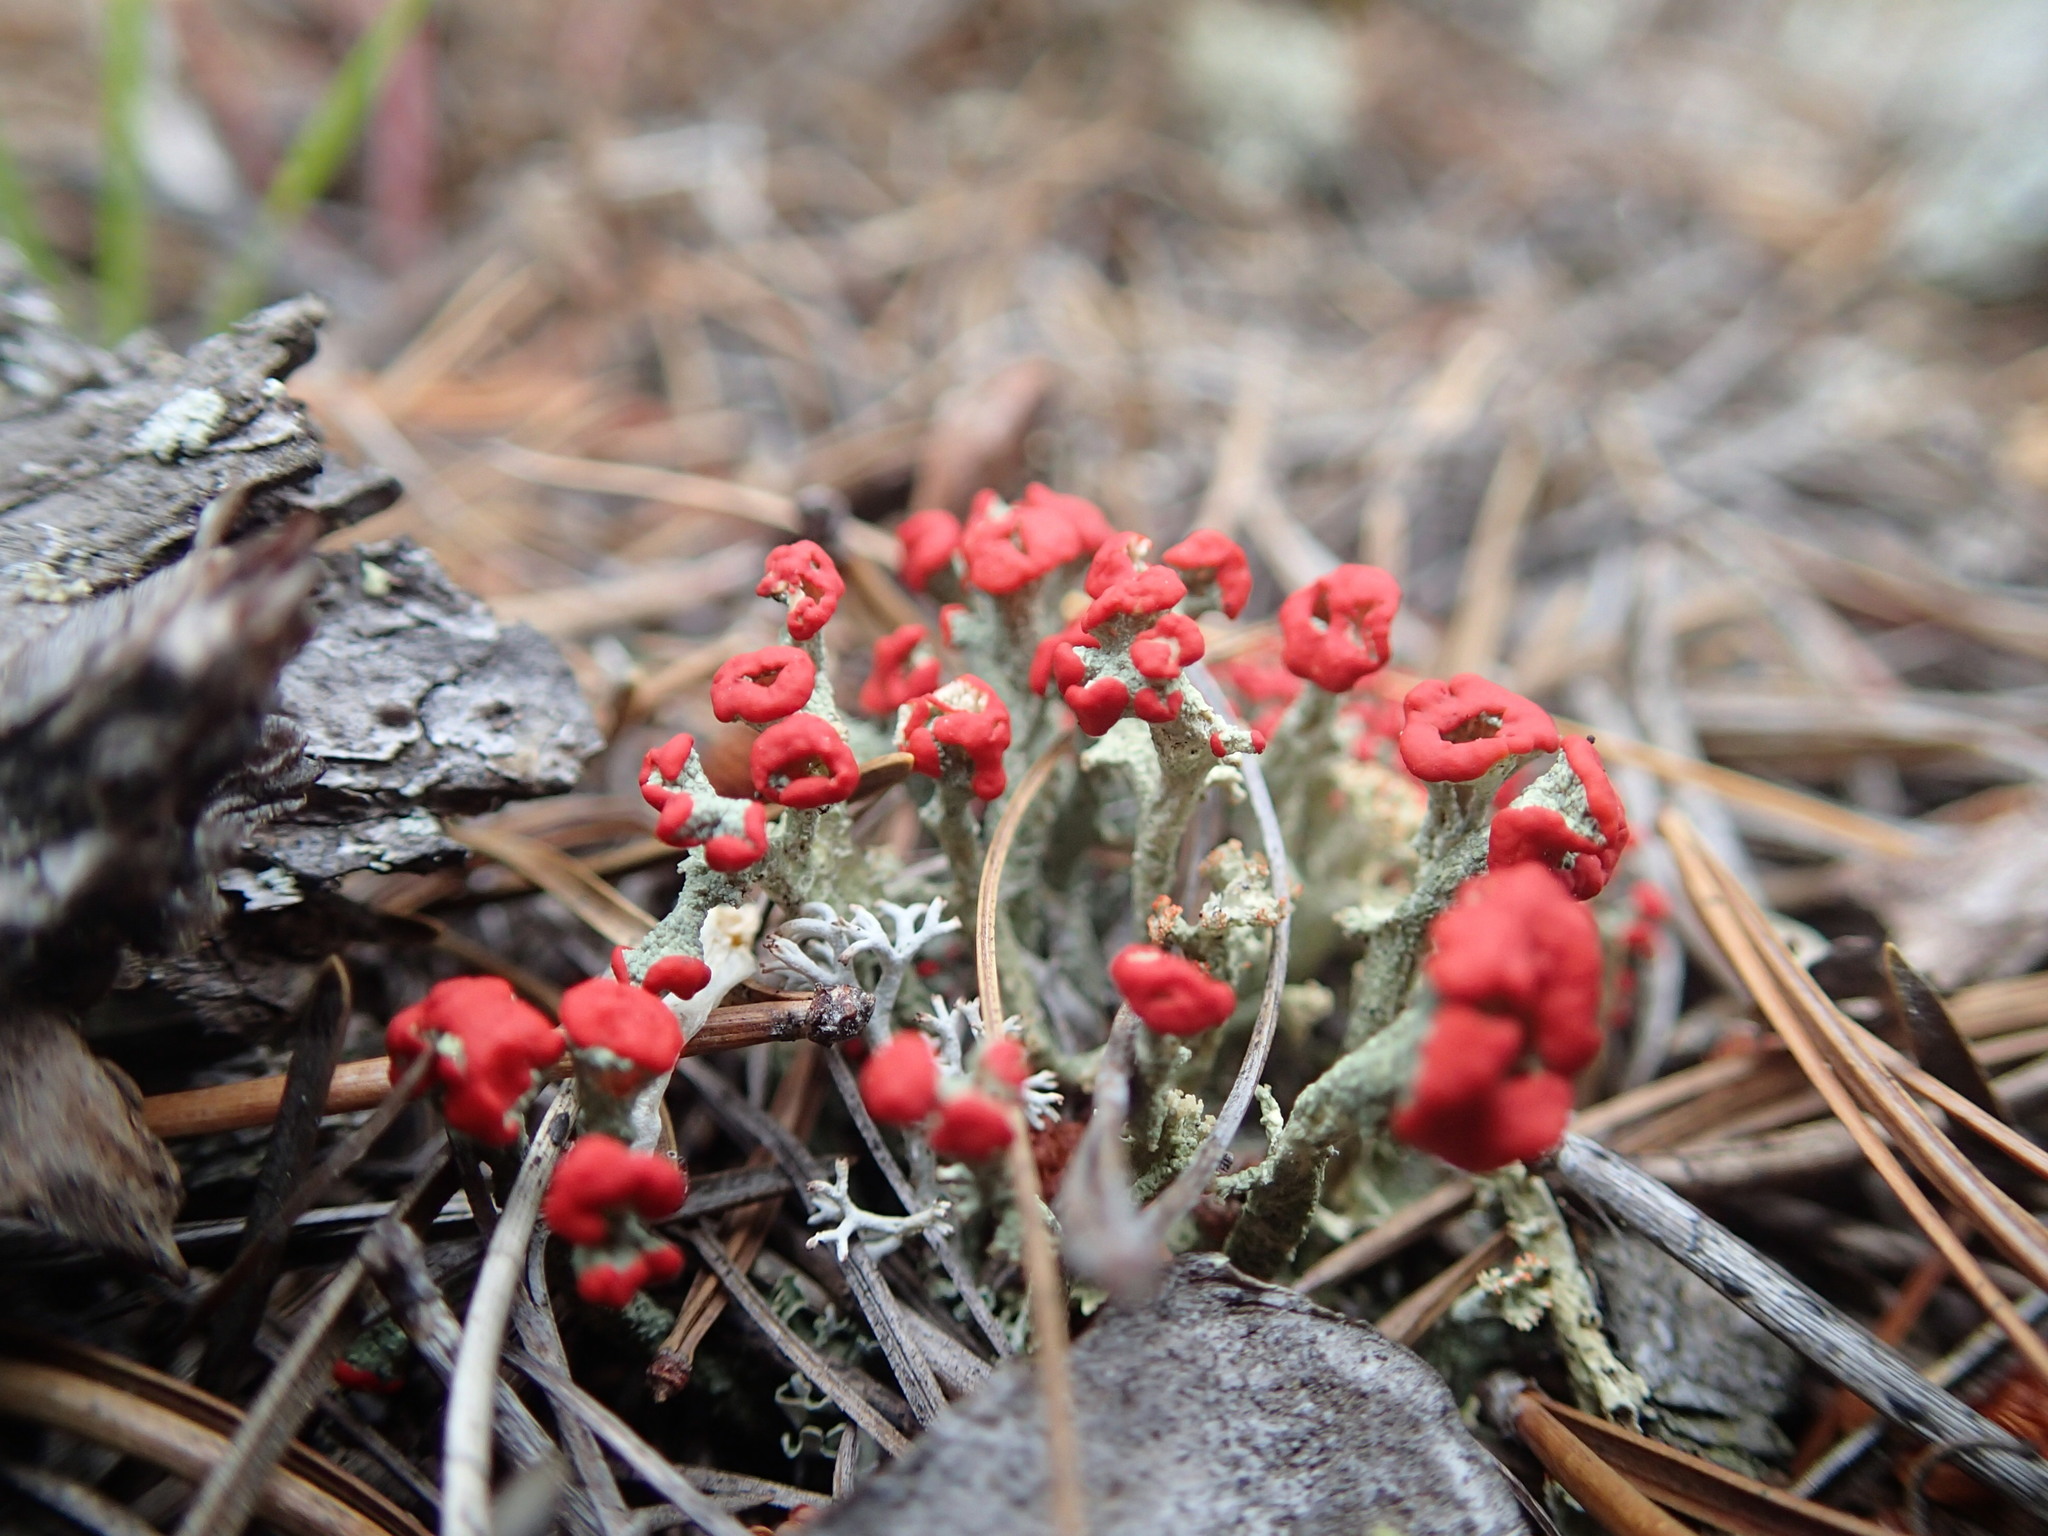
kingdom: Fungi
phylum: Ascomycota
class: Lecanoromycetes
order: Lecanorales
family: Cladoniaceae
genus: Cladonia
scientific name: Cladonia cristatella
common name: British soldier lichen
